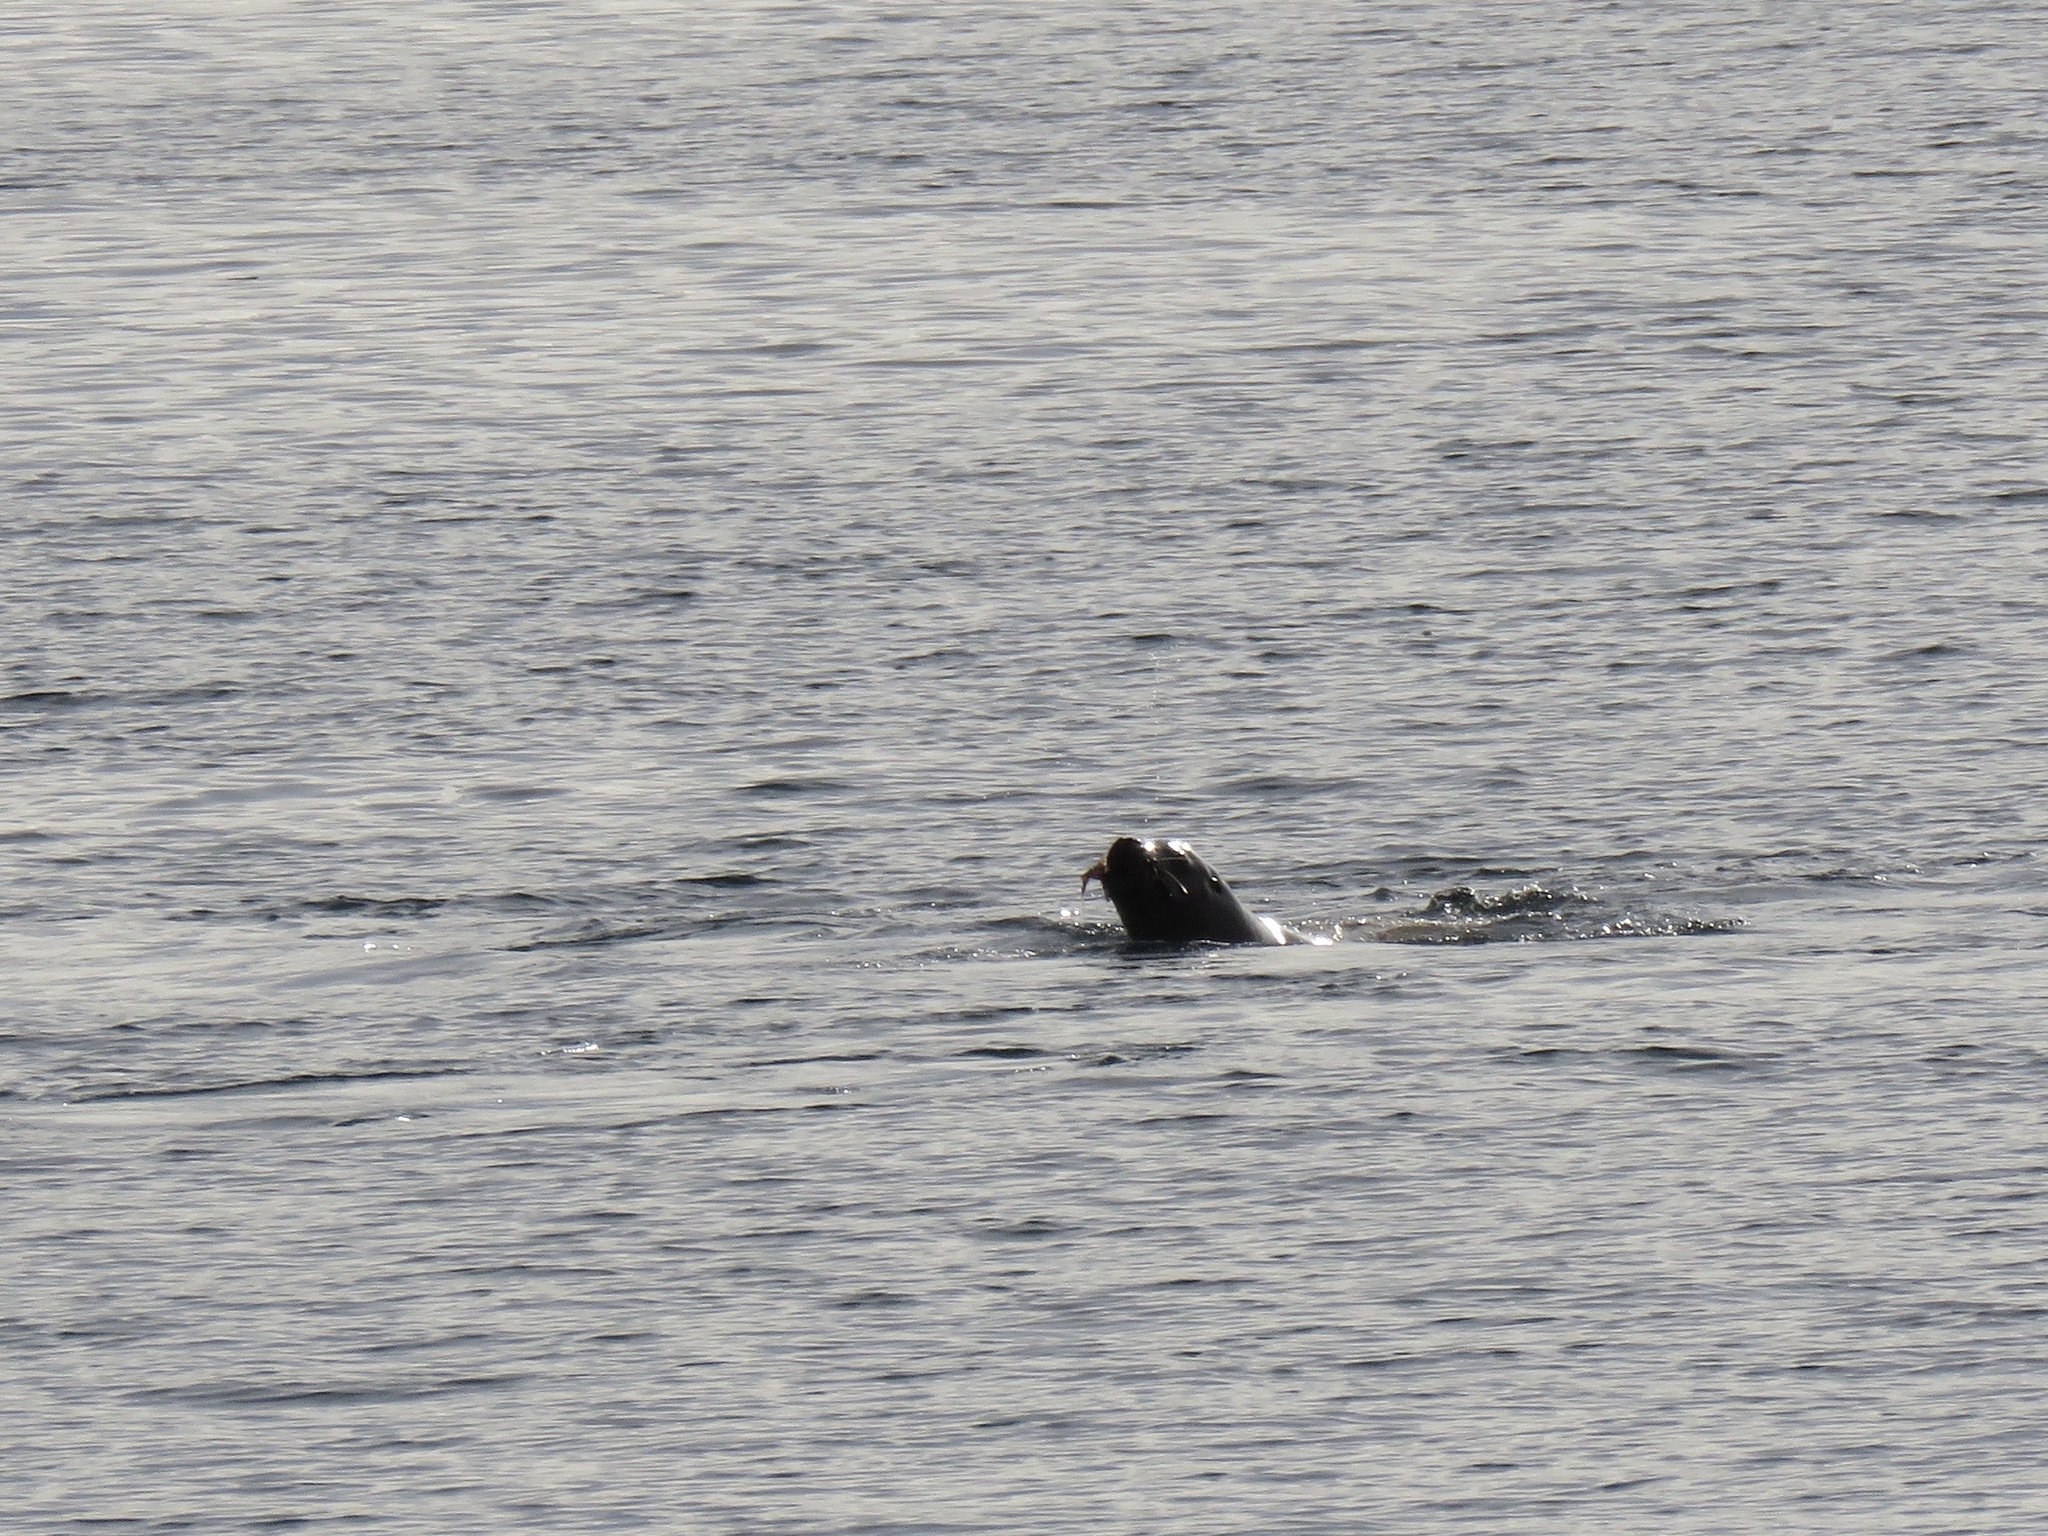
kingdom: Animalia
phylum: Chordata
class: Mammalia
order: Carnivora
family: Otariidae
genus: Eumetopias
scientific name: Eumetopias jubatus
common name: Steller sea lion
